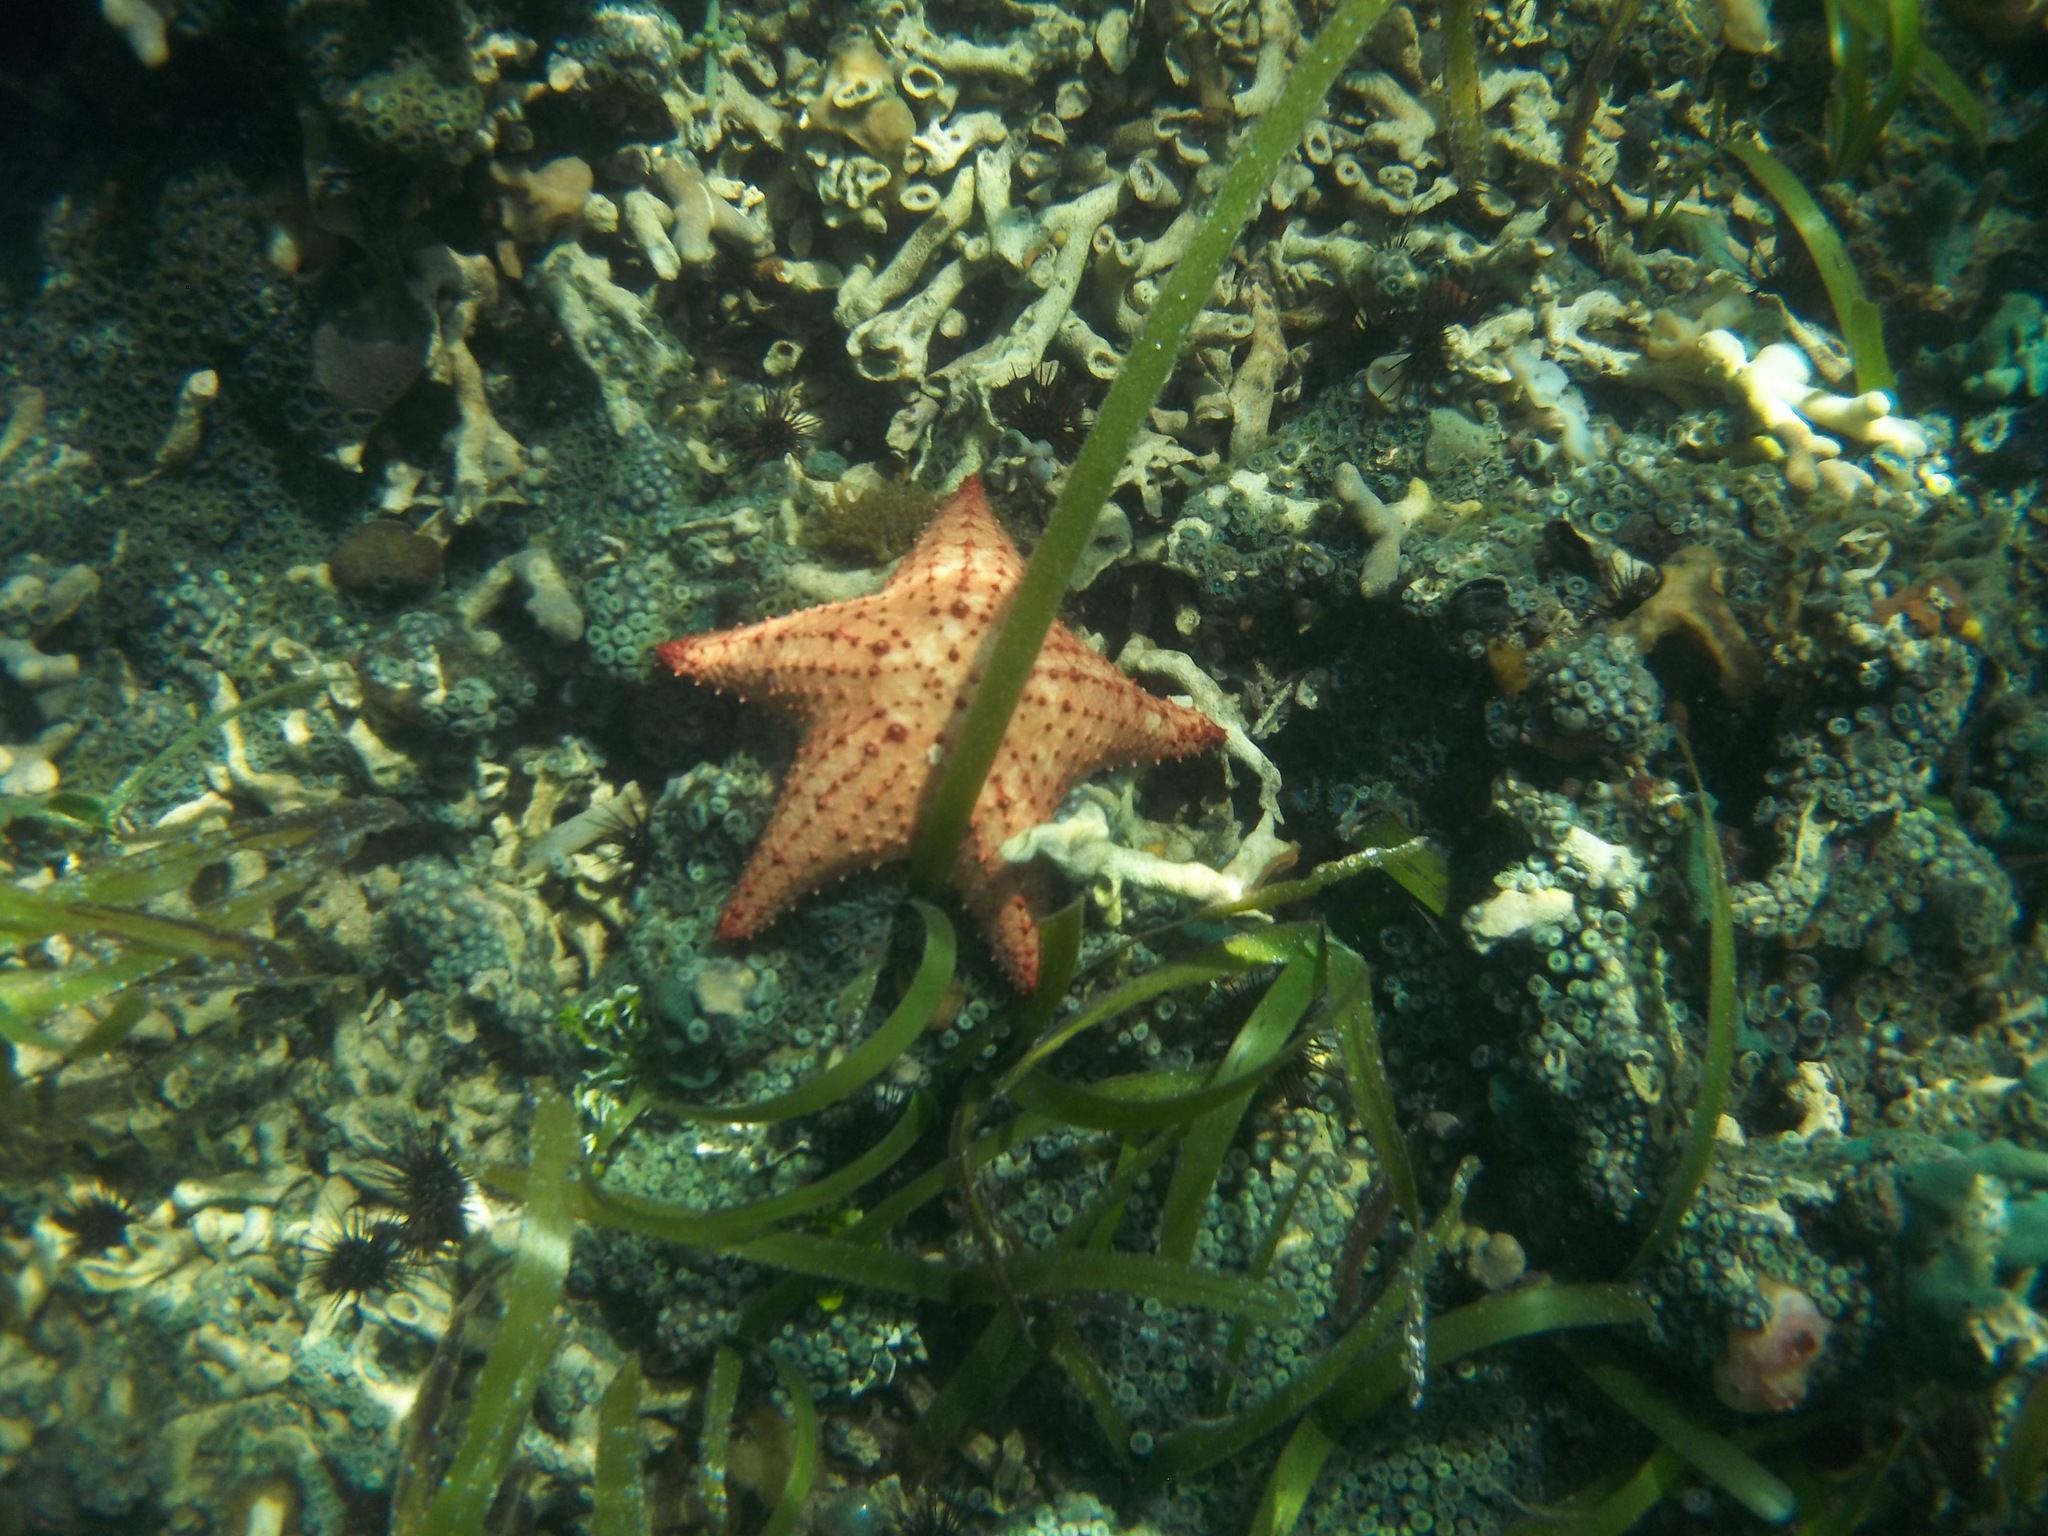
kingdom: Animalia
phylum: Echinodermata
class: Asteroidea
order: Valvatida
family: Oreasteridae
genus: Oreaster
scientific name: Oreaster reticulatus
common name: Cushion sea star
